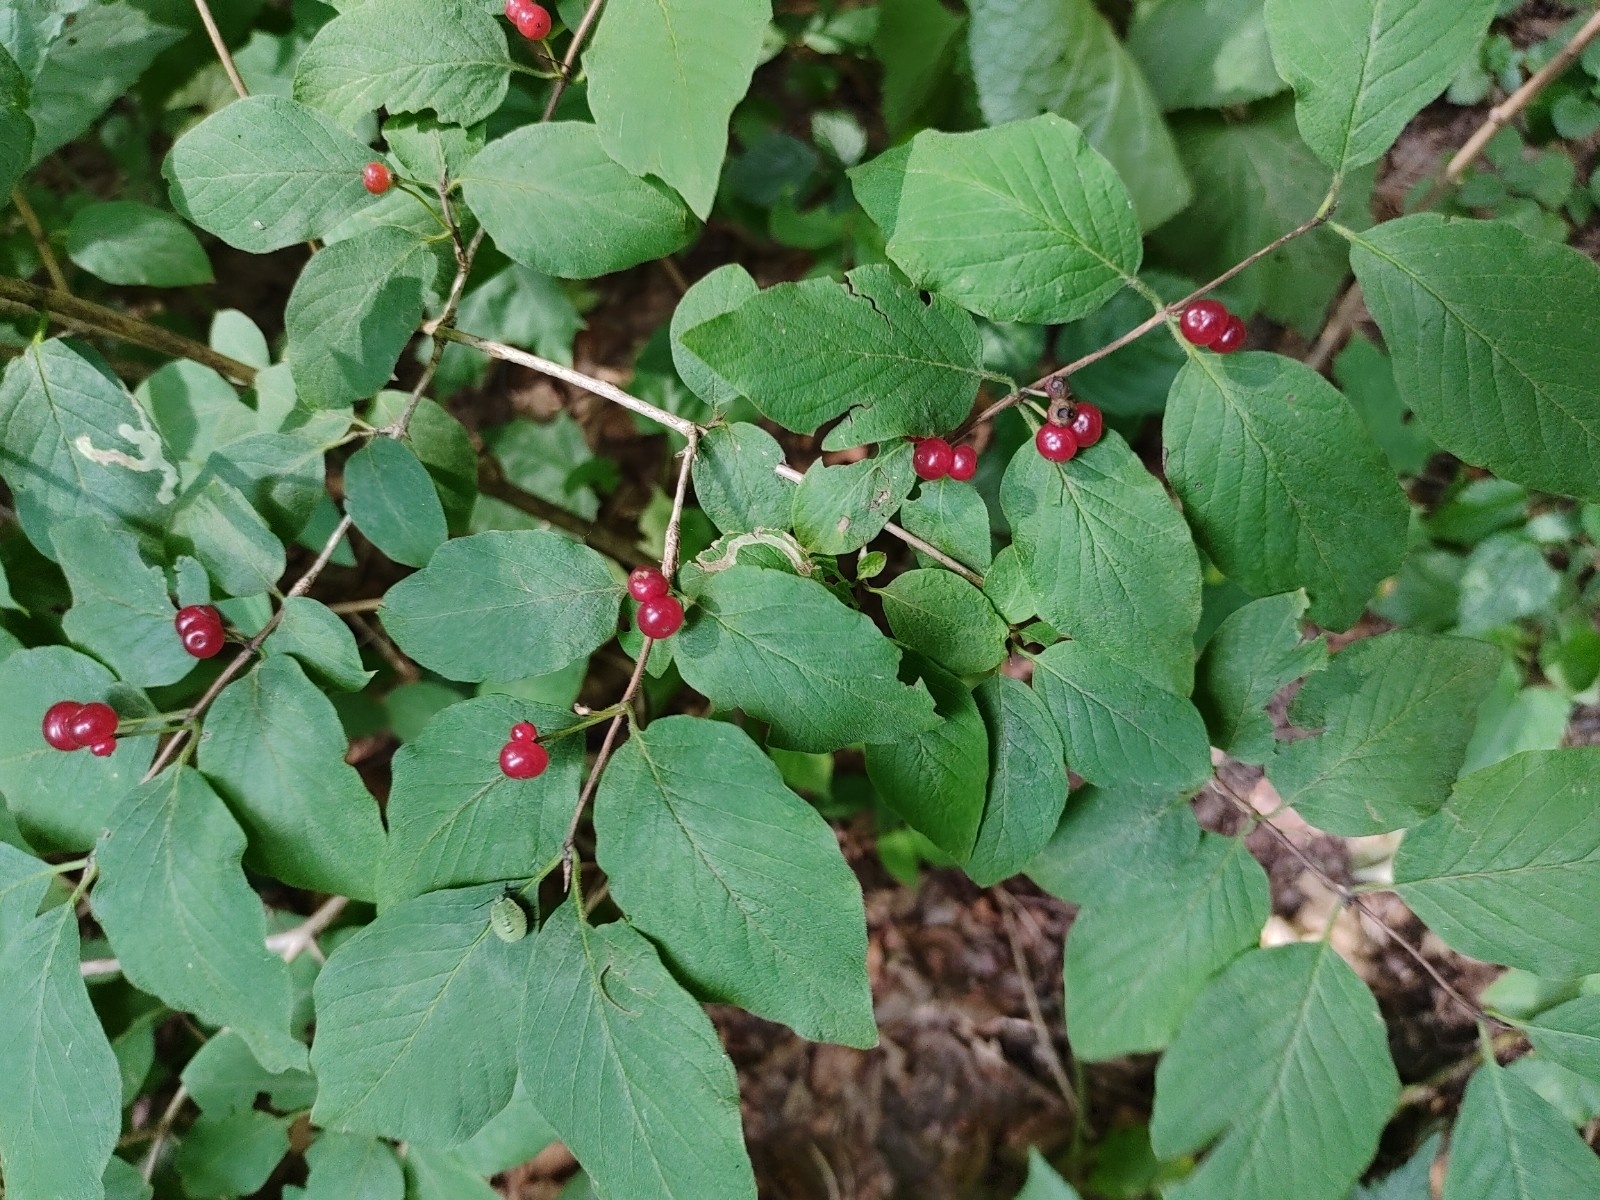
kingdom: Plantae
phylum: Tracheophyta
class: Magnoliopsida
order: Dipsacales
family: Caprifoliaceae
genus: Lonicera
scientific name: Lonicera xylosteum
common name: Fly honeysuckle
